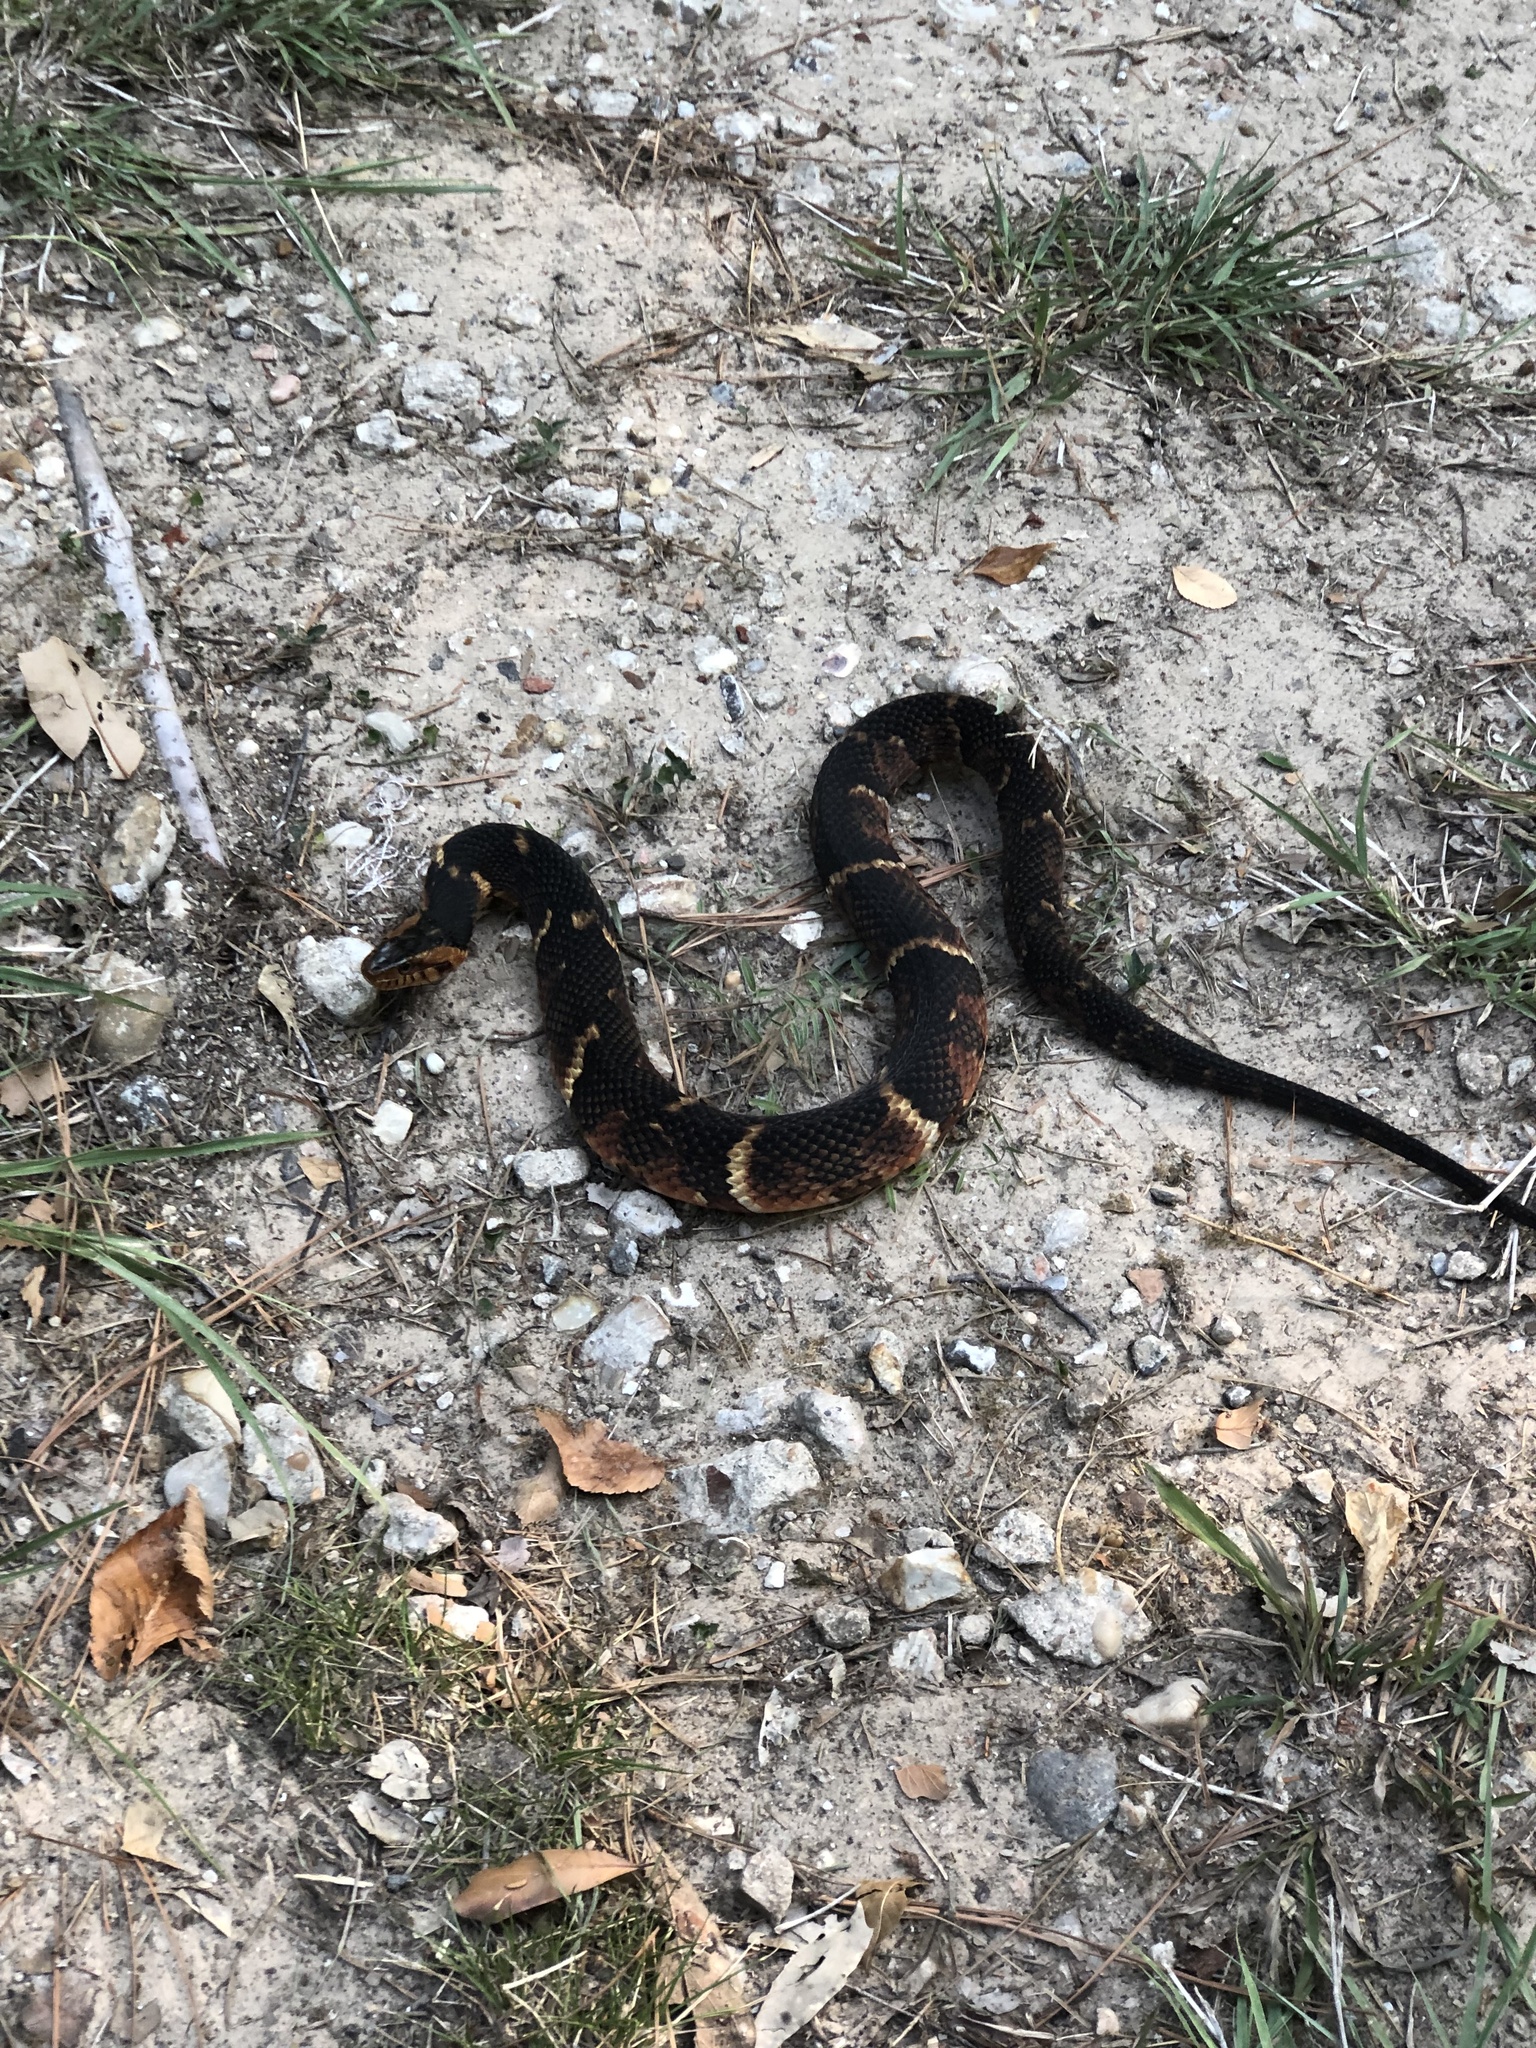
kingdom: Animalia
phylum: Chordata
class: Squamata
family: Colubridae
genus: Nerodia
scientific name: Nerodia fasciata
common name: Southern water snake
